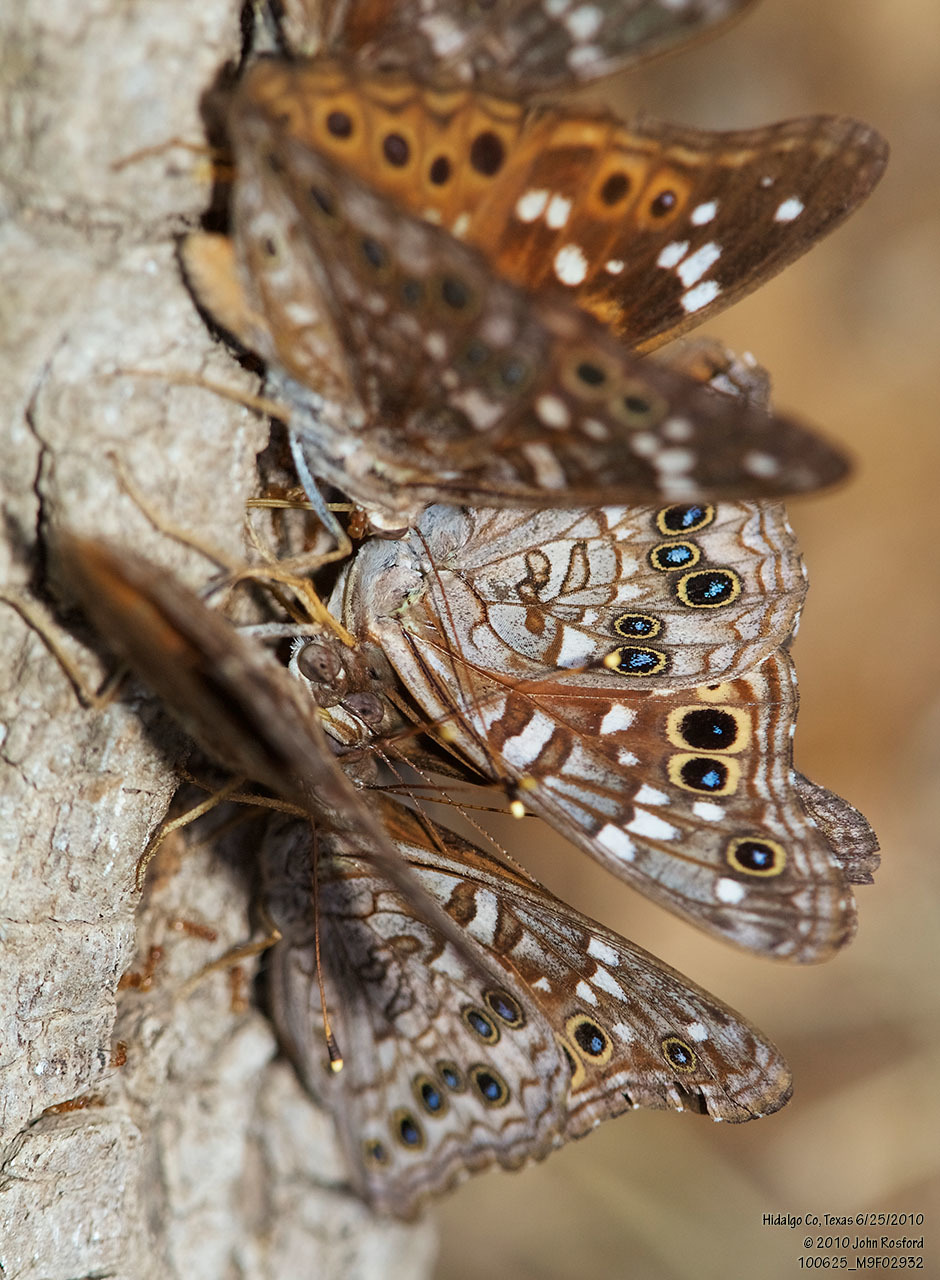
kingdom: Animalia
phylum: Arthropoda
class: Insecta
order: Lepidoptera
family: Nymphalidae
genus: Asterocampa
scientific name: Asterocampa leilia
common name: Empress leilia
